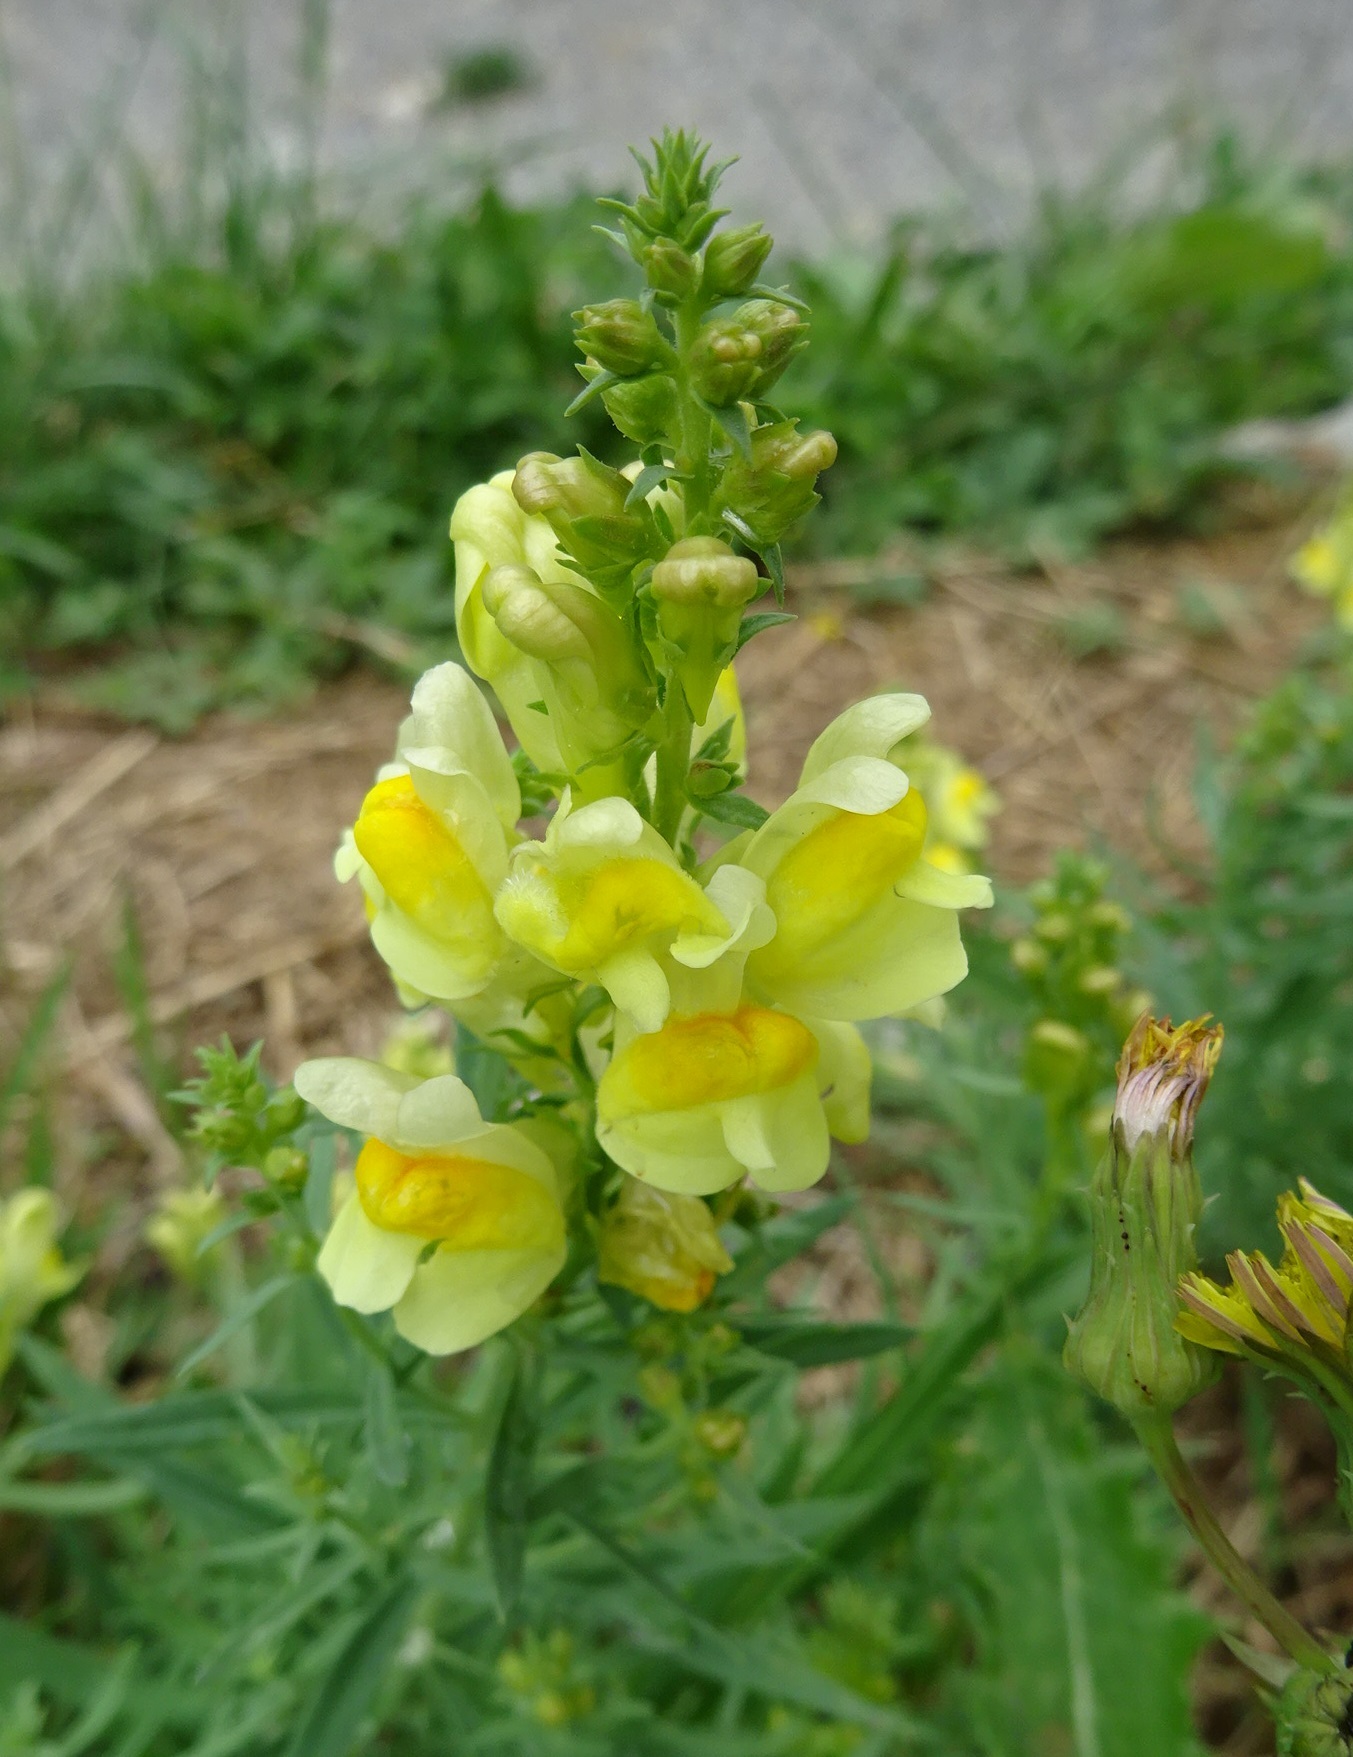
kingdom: Plantae
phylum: Tracheophyta
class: Magnoliopsida
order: Lamiales
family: Plantaginaceae
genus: Linaria
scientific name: Linaria vulgaris
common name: Butter and eggs
